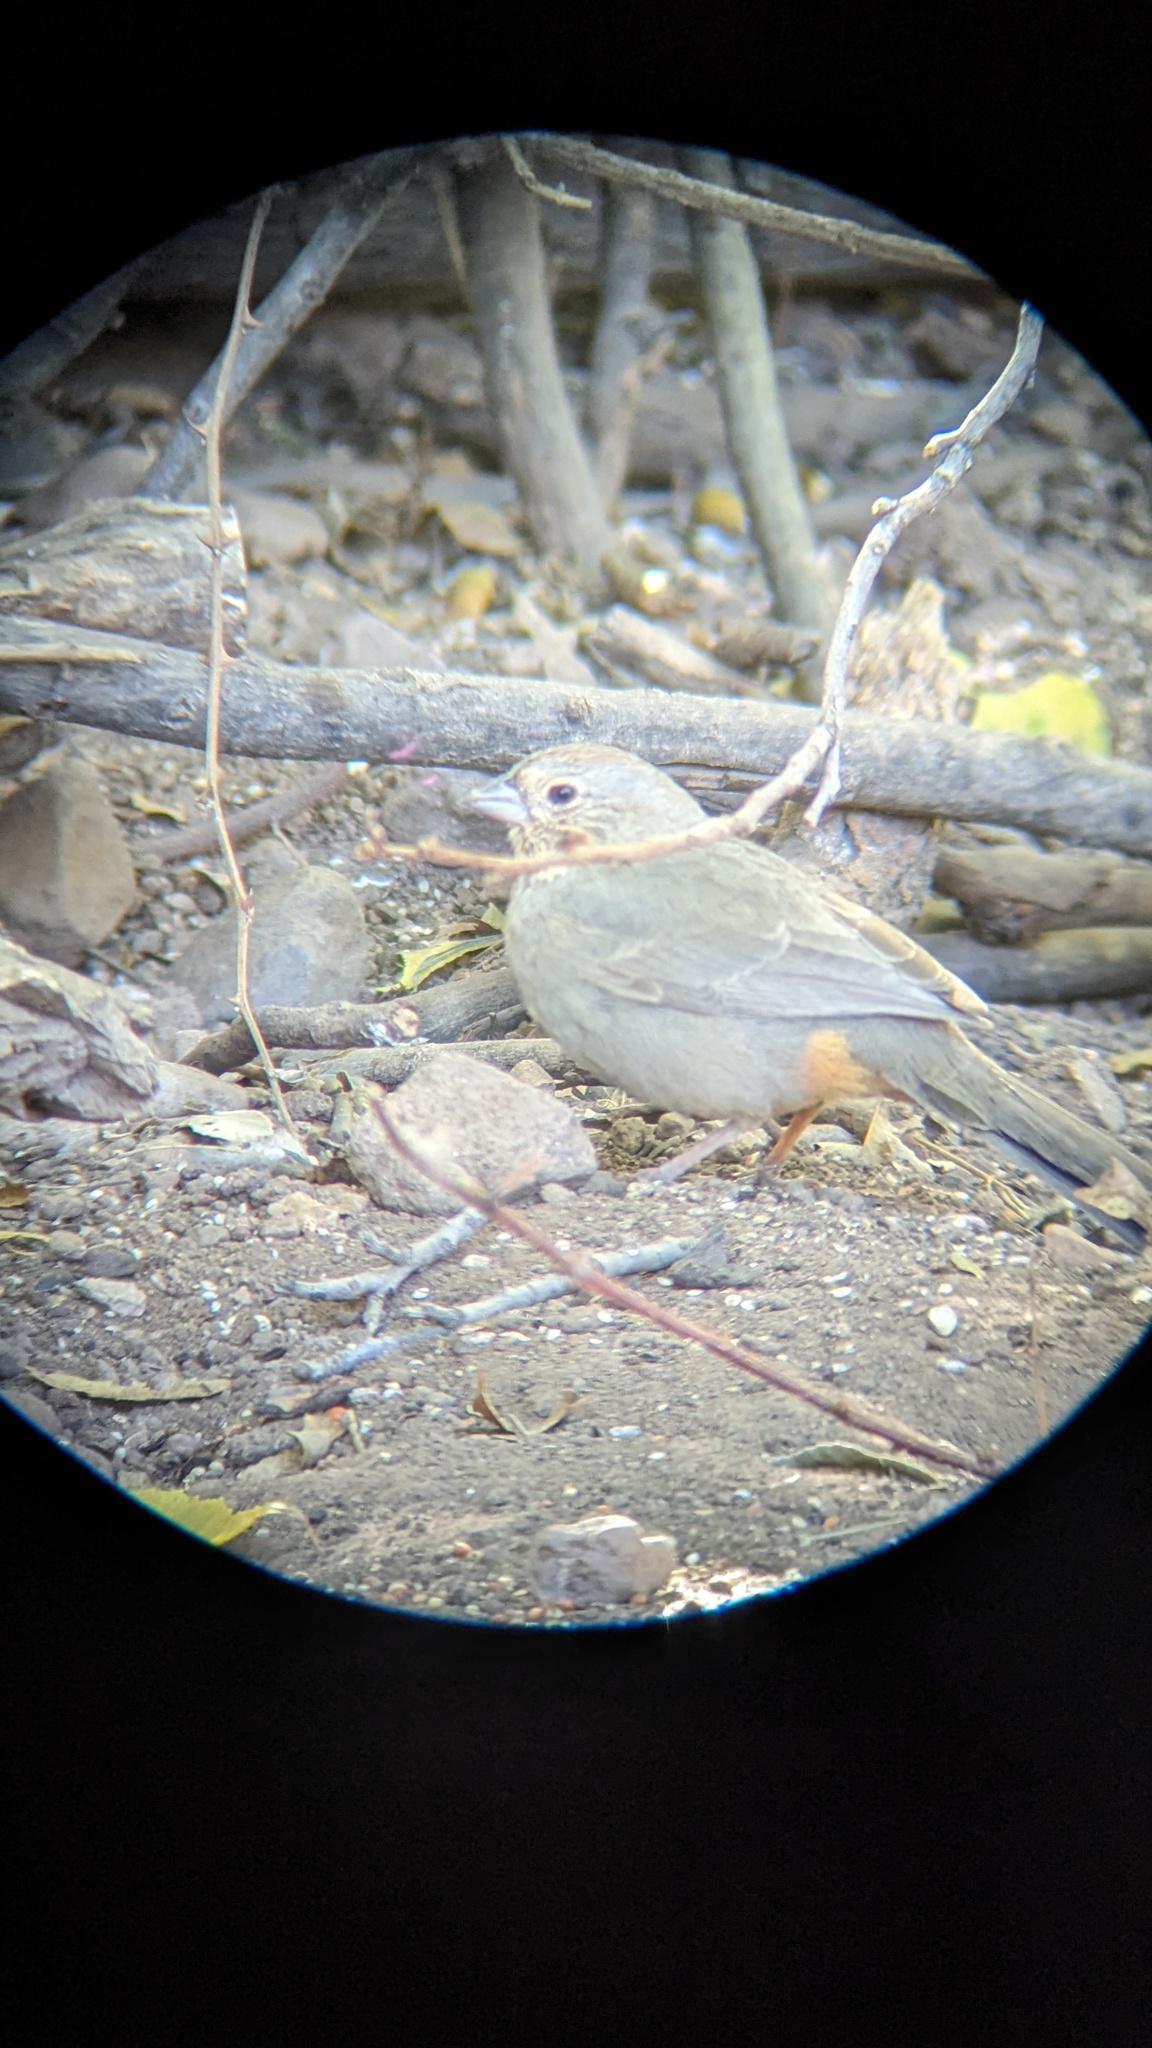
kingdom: Animalia
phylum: Chordata
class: Aves
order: Passeriformes
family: Passerellidae
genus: Melozone
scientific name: Melozone fusca
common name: Canyon towhee
